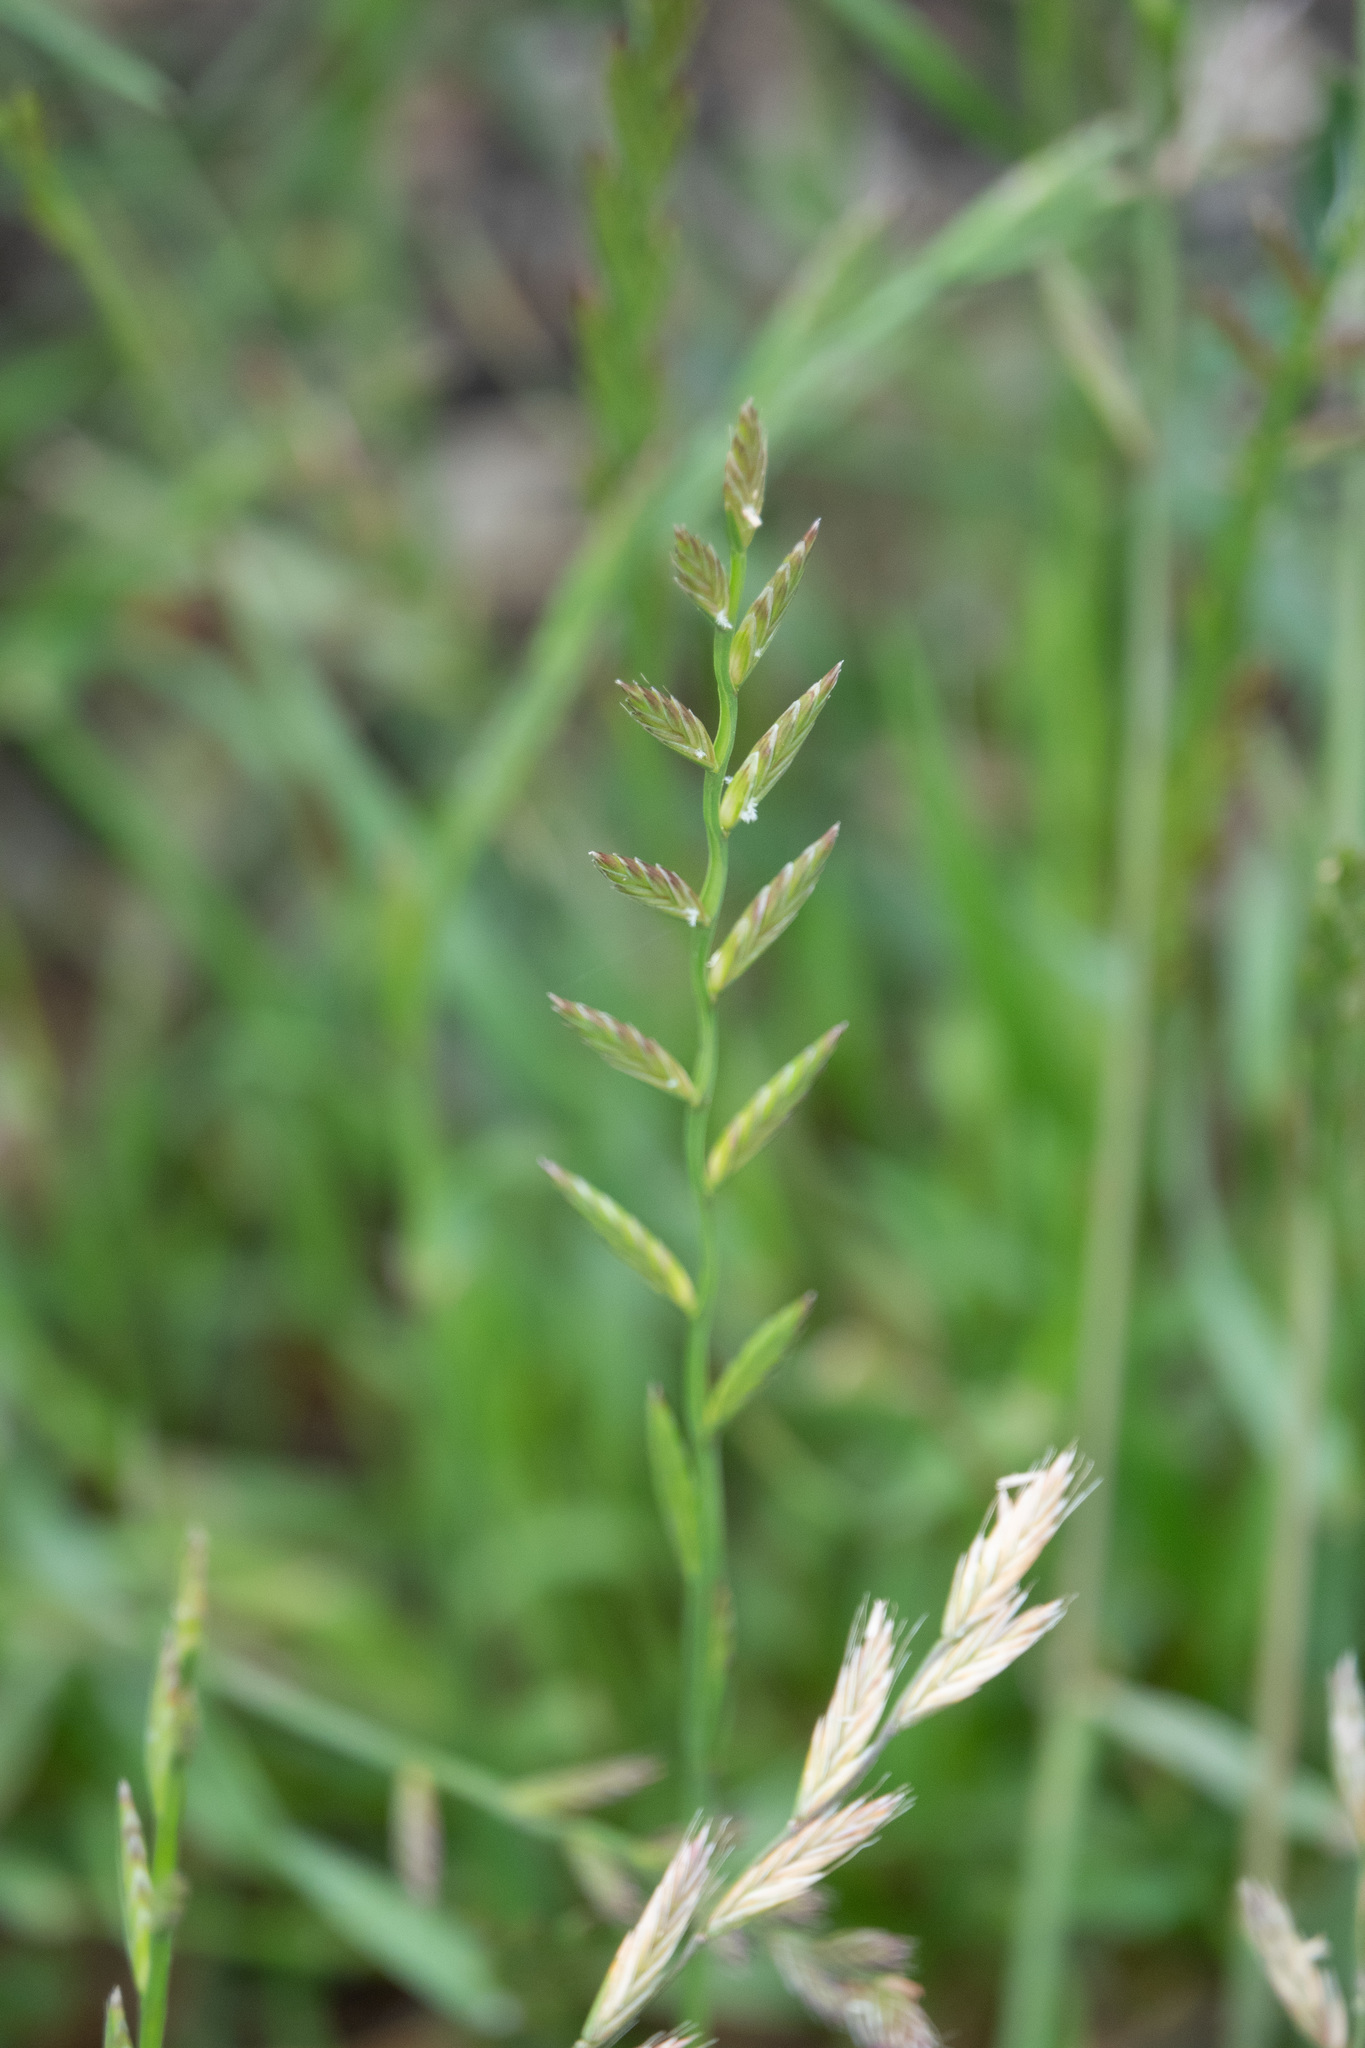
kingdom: Plantae
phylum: Tracheophyta
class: Liliopsida
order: Poales
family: Poaceae
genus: Lolium
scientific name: Lolium perenne
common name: Perennial ryegrass
